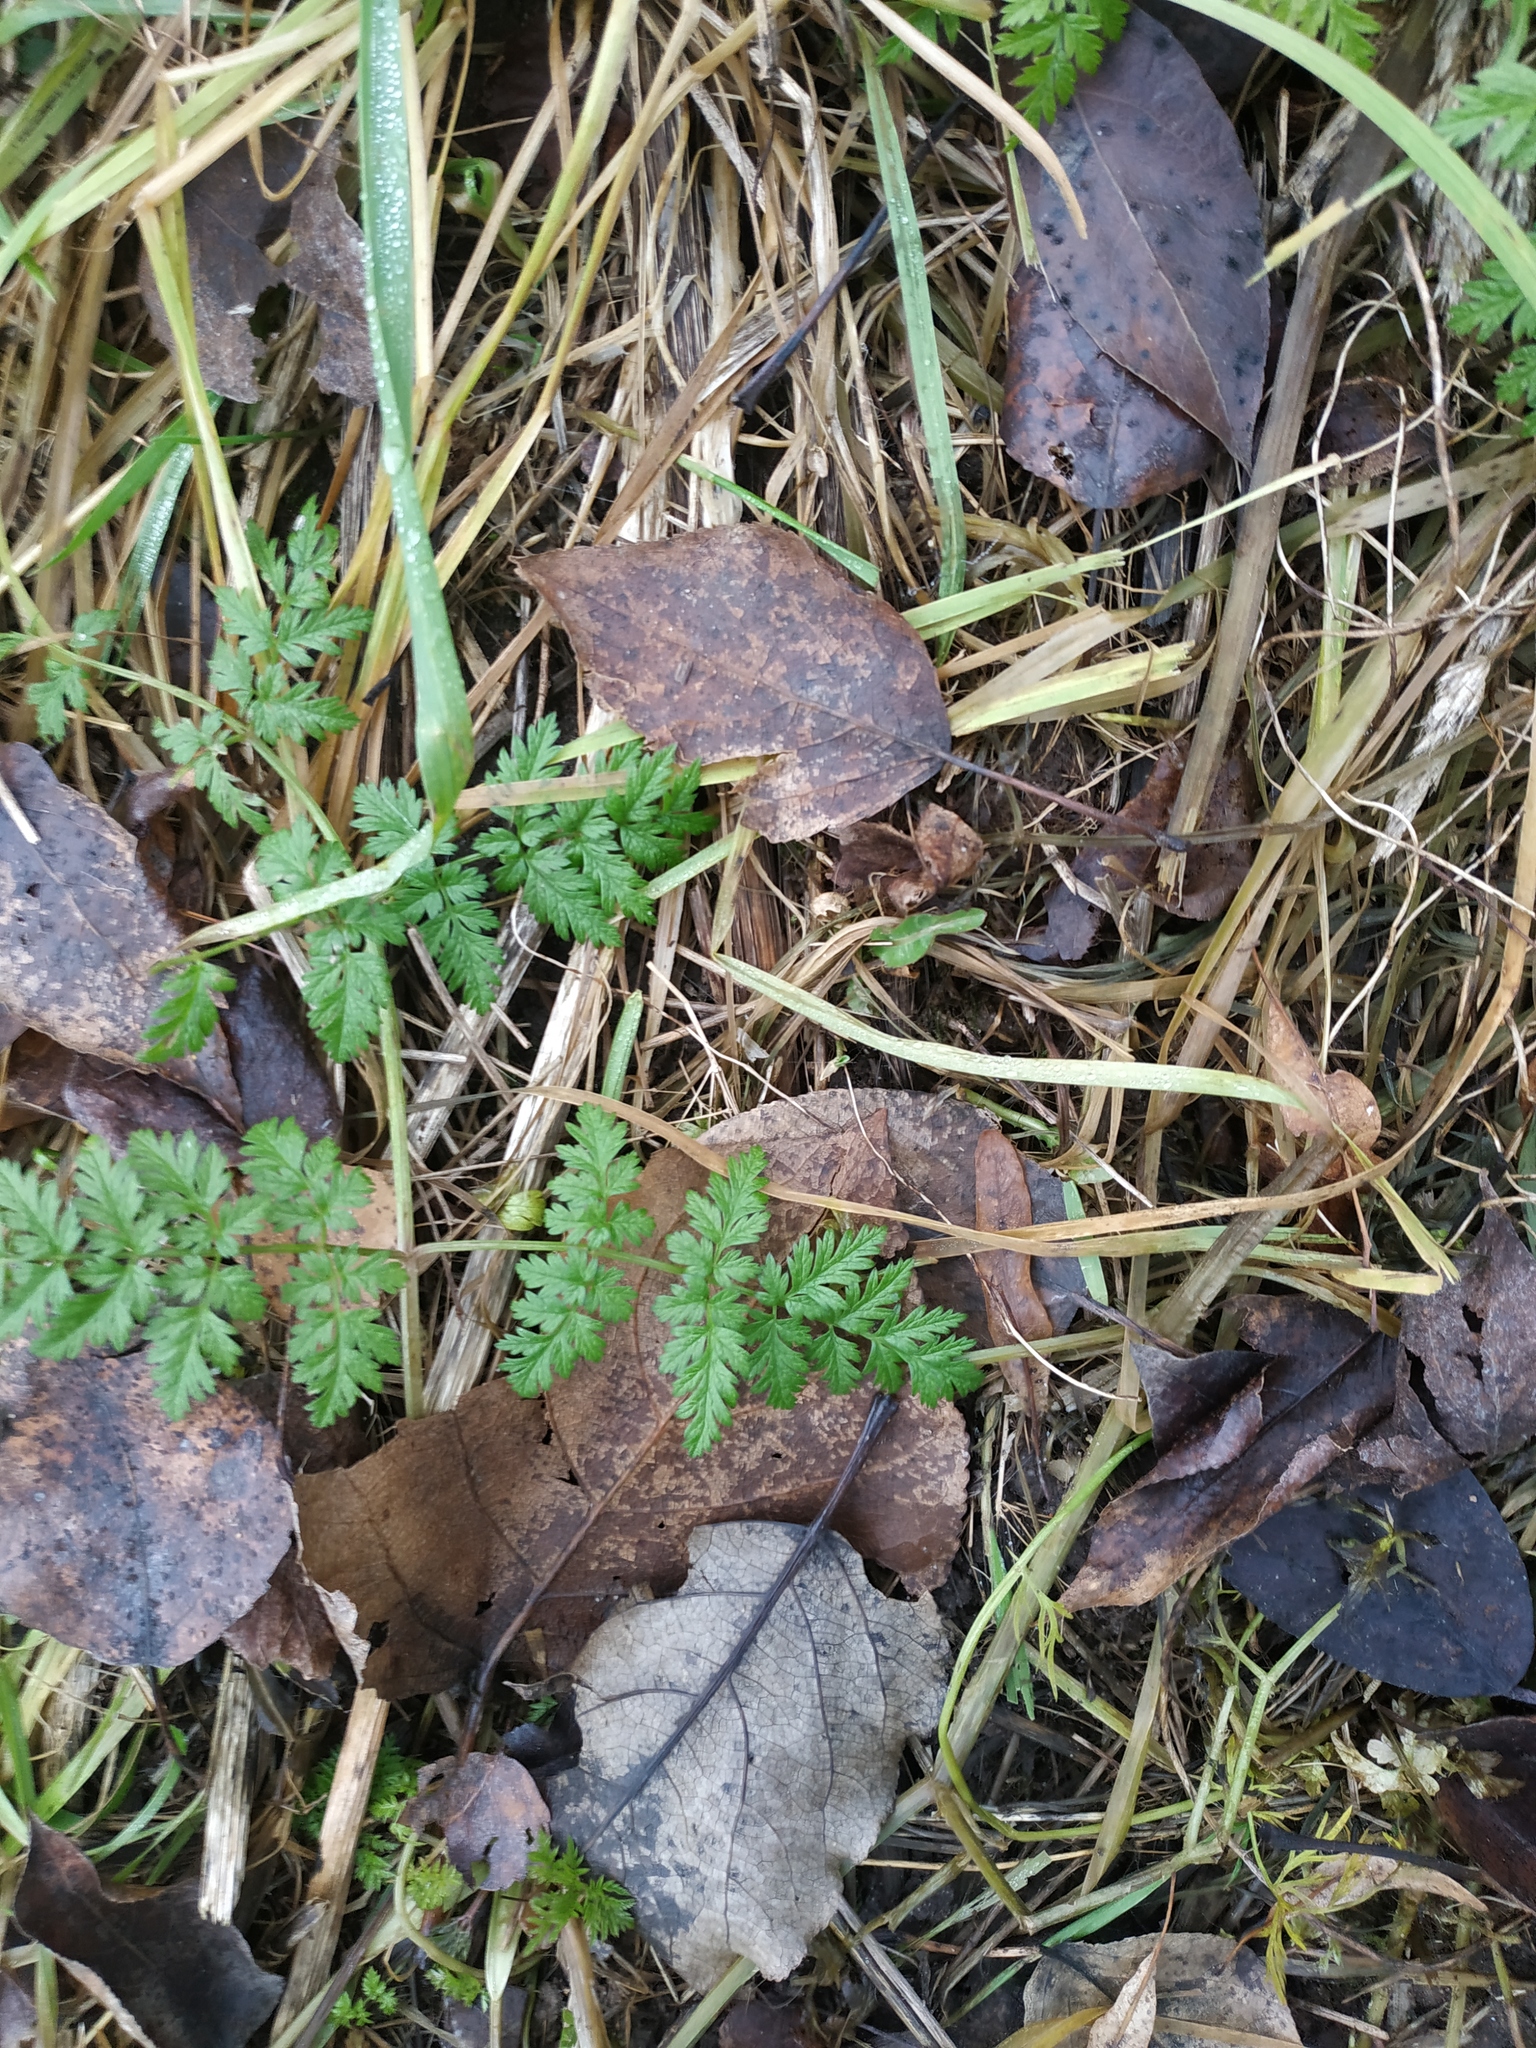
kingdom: Plantae
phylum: Tracheophyta
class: Magnoliopsida
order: Apiales
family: Apiaceae
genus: Anthriscus
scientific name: Anthriscus sylvestris
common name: Cow parsley
